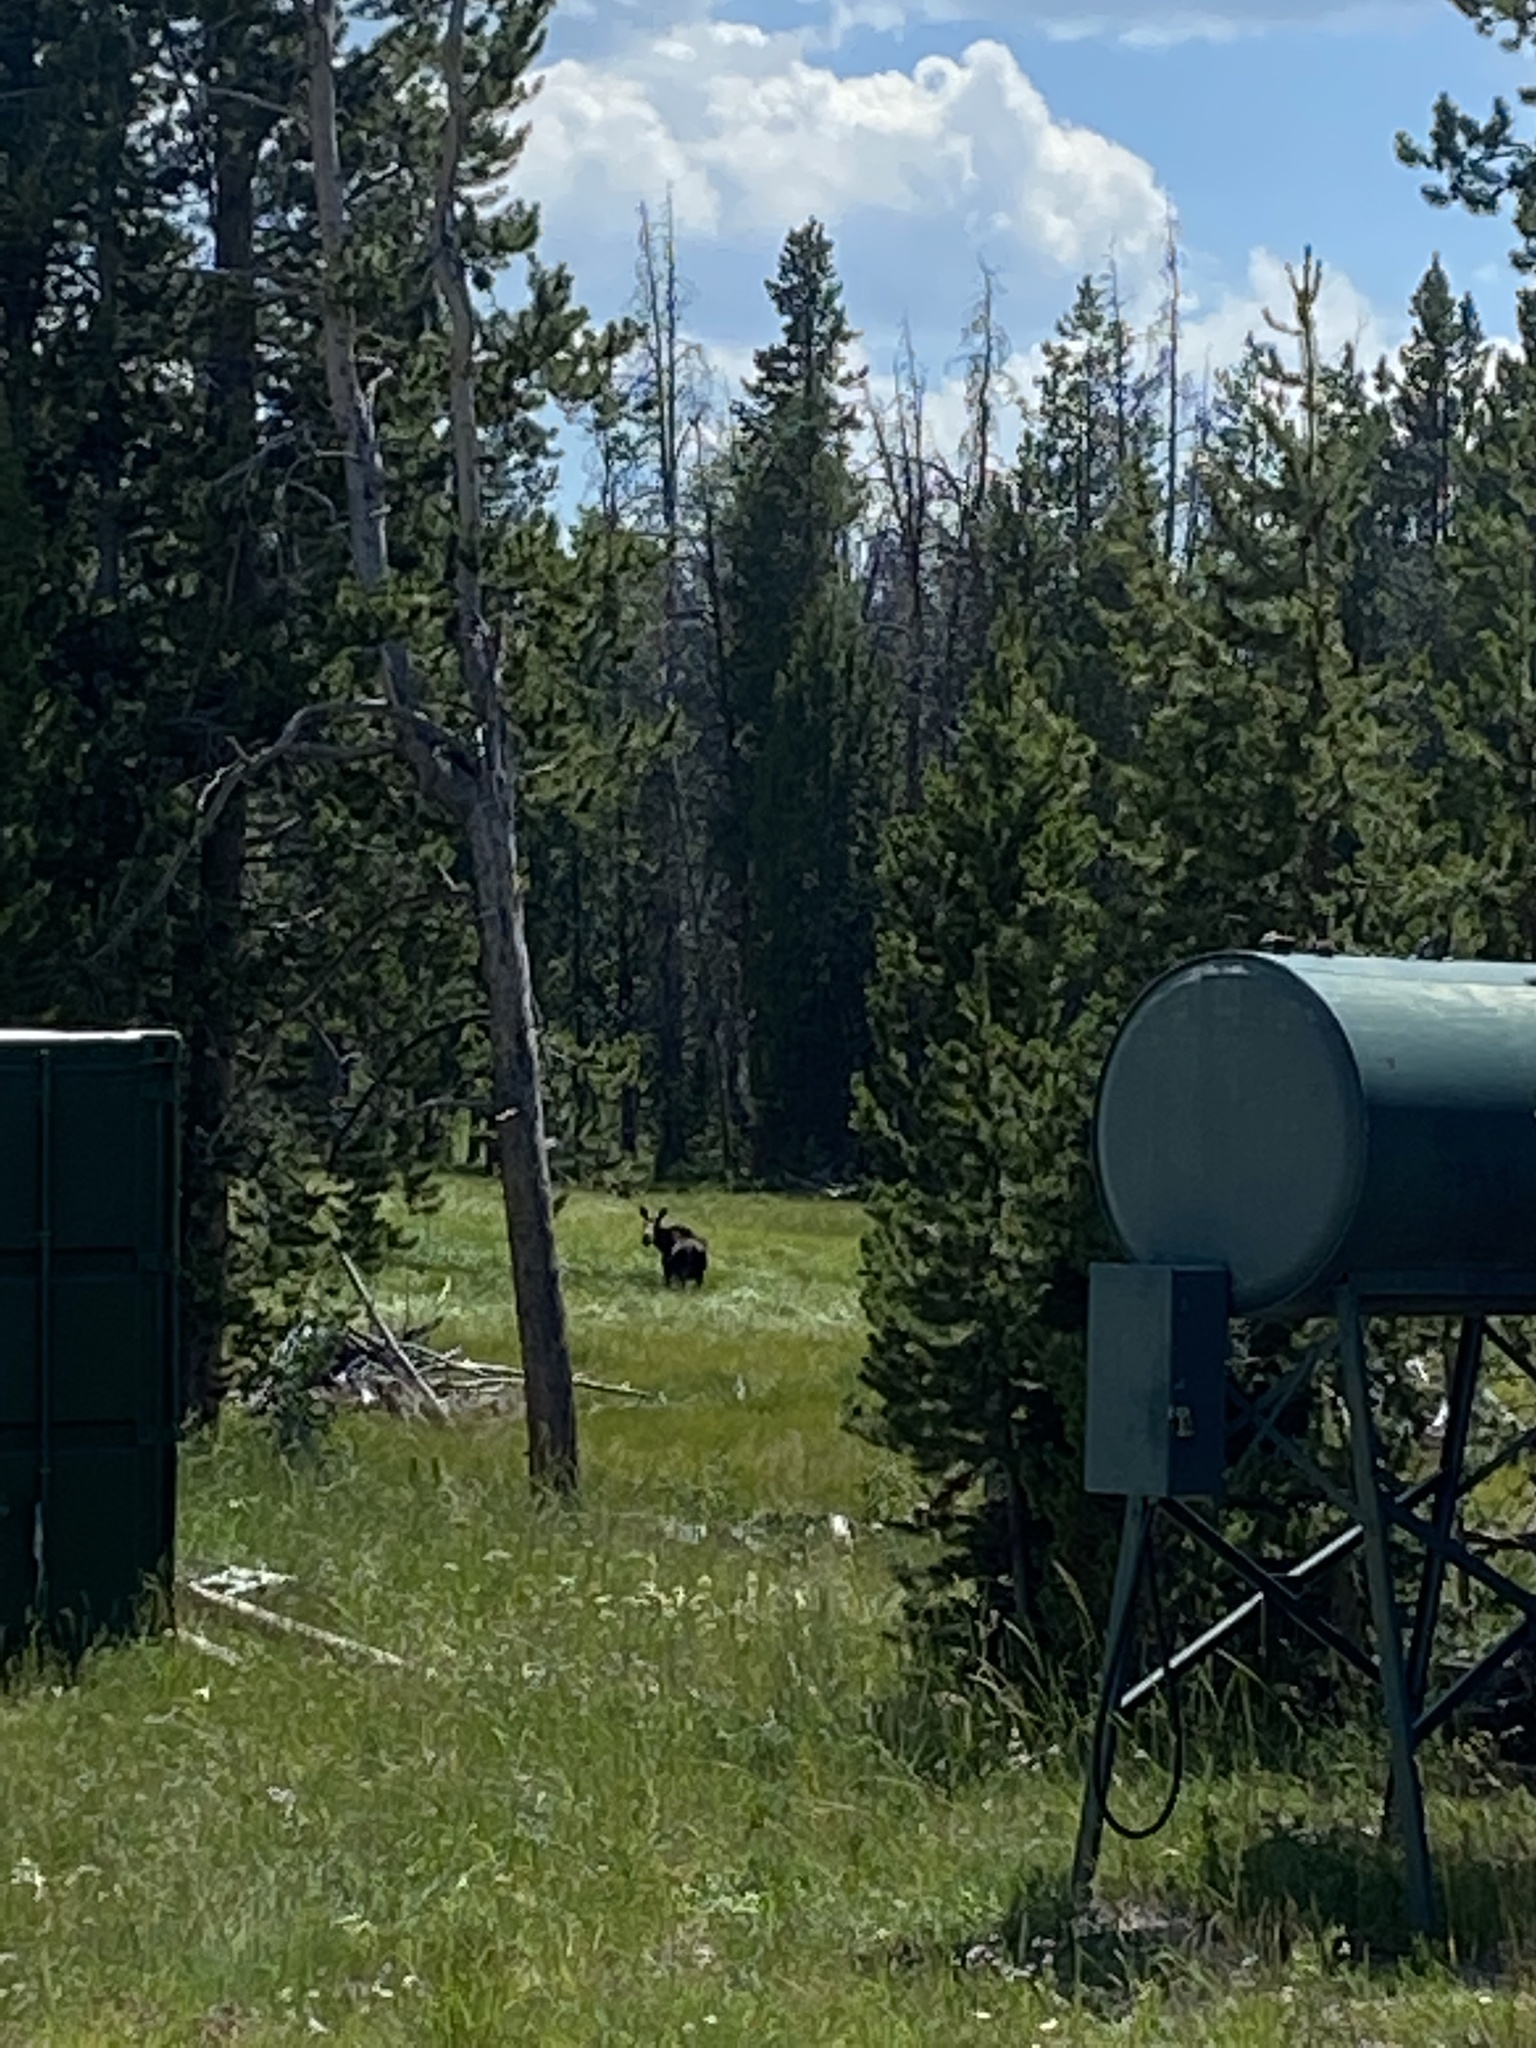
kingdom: Animalia
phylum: Chordata
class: Mammalia
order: Artiodactyla
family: Cervidae
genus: Alces
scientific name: Alces alces
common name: Moose
